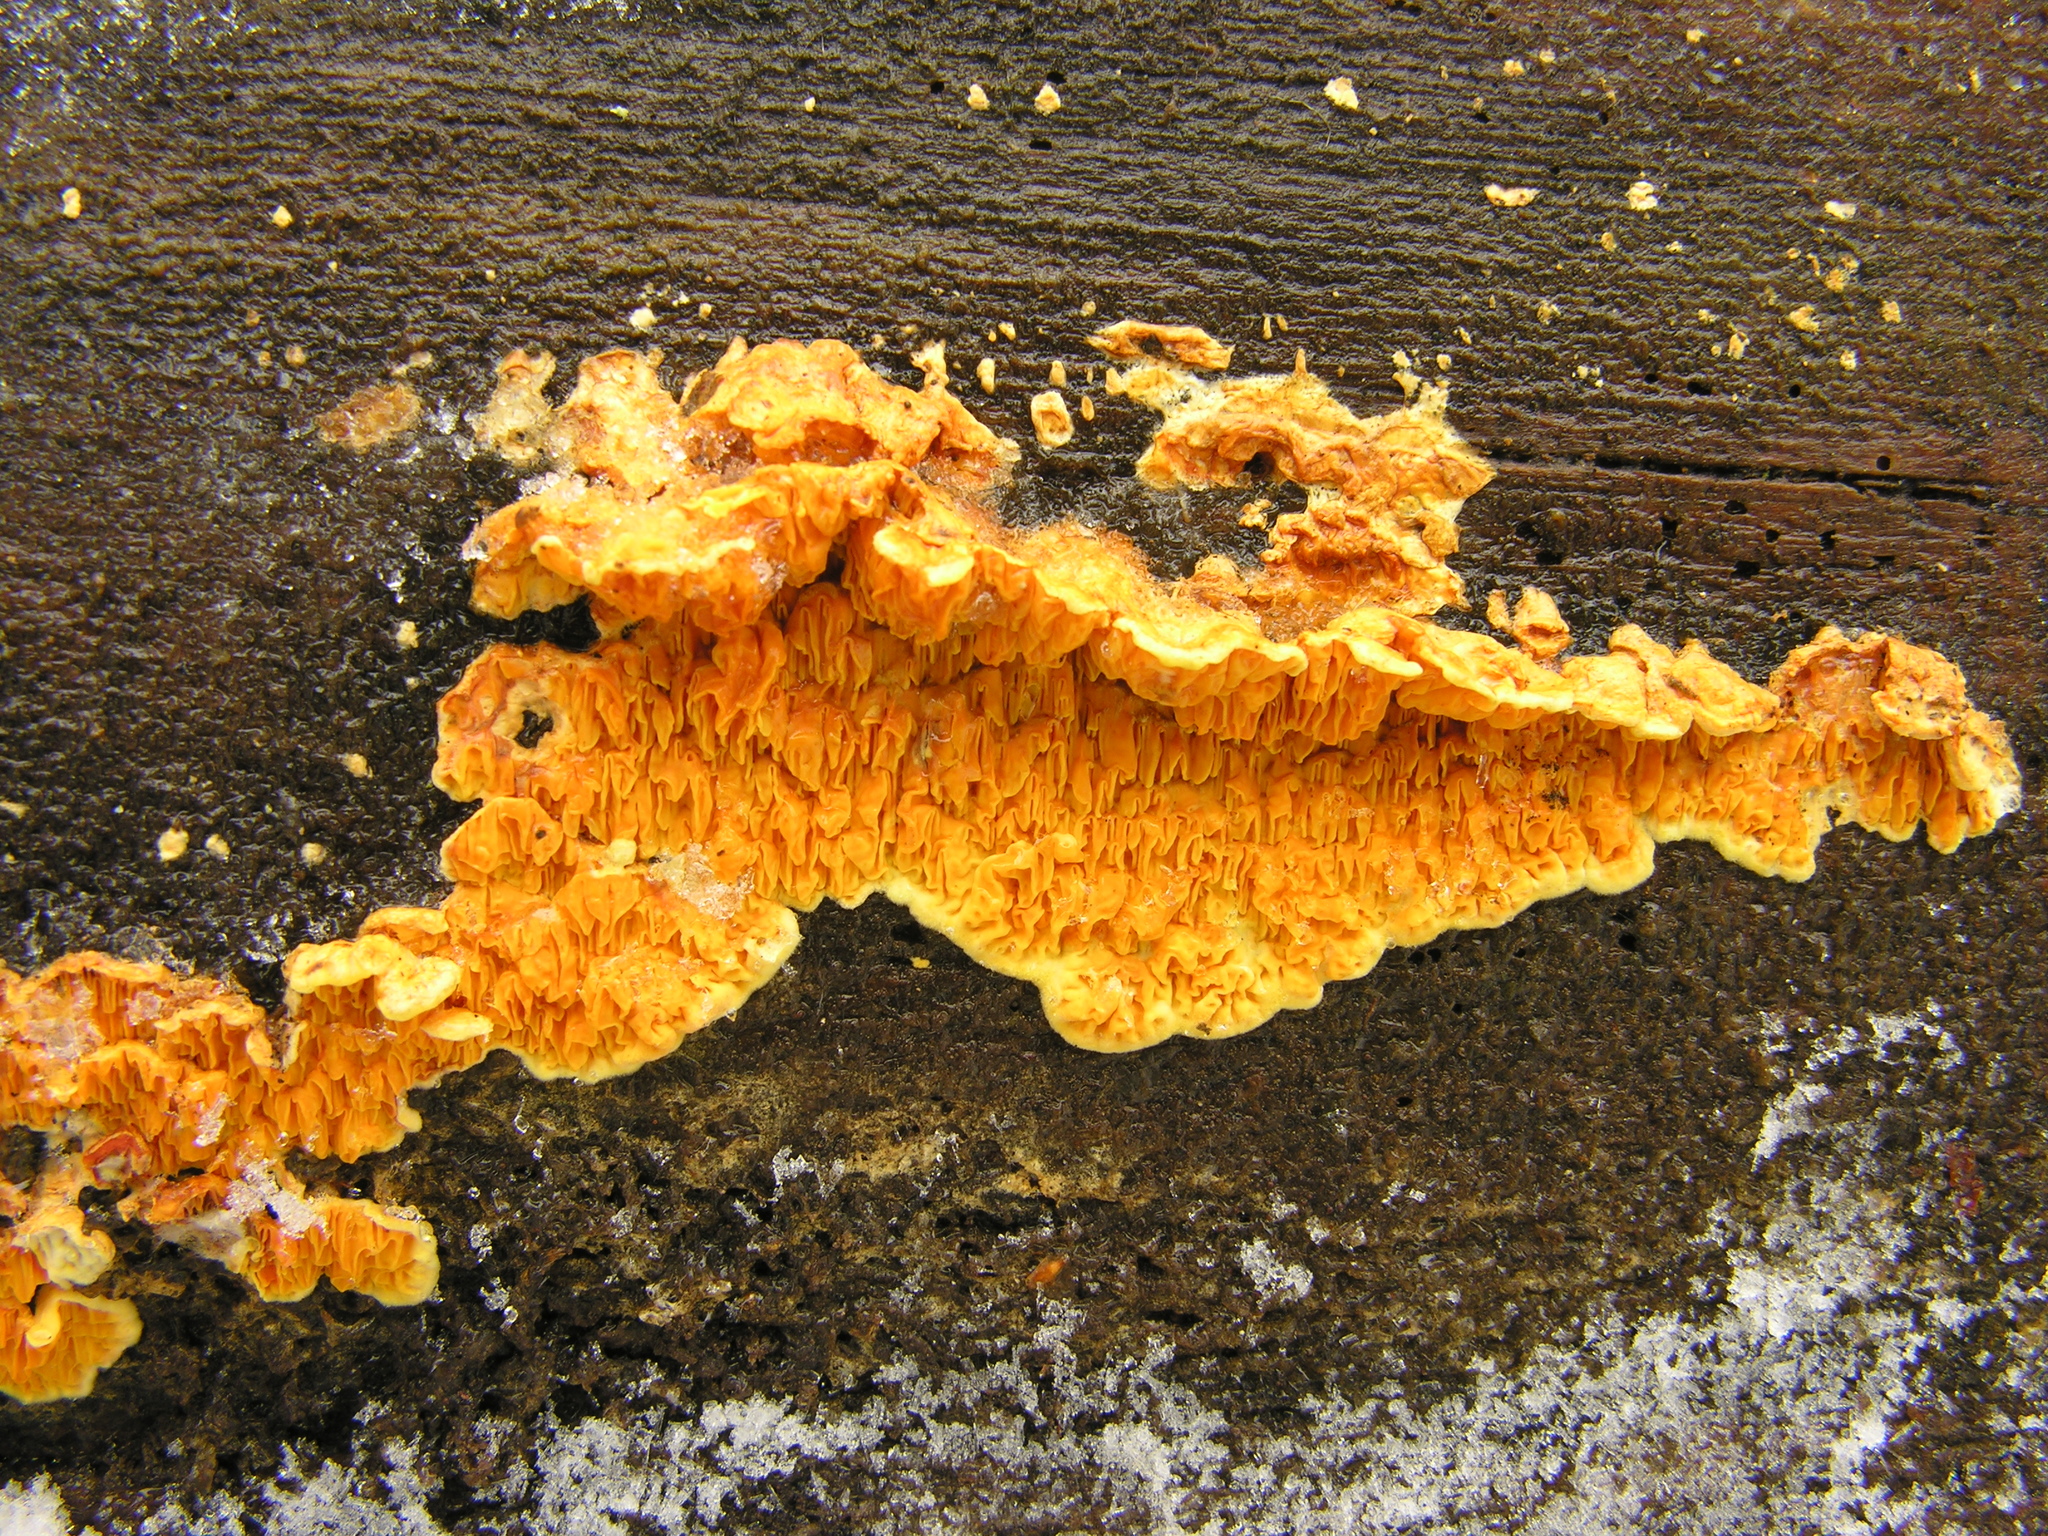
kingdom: Fungi
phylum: Basidiomycota
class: Agaricomycetes
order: Boletales
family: Tapinellaceae
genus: Pseudomerulius
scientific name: Pseudomerulius aureus
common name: Orange netcrust
